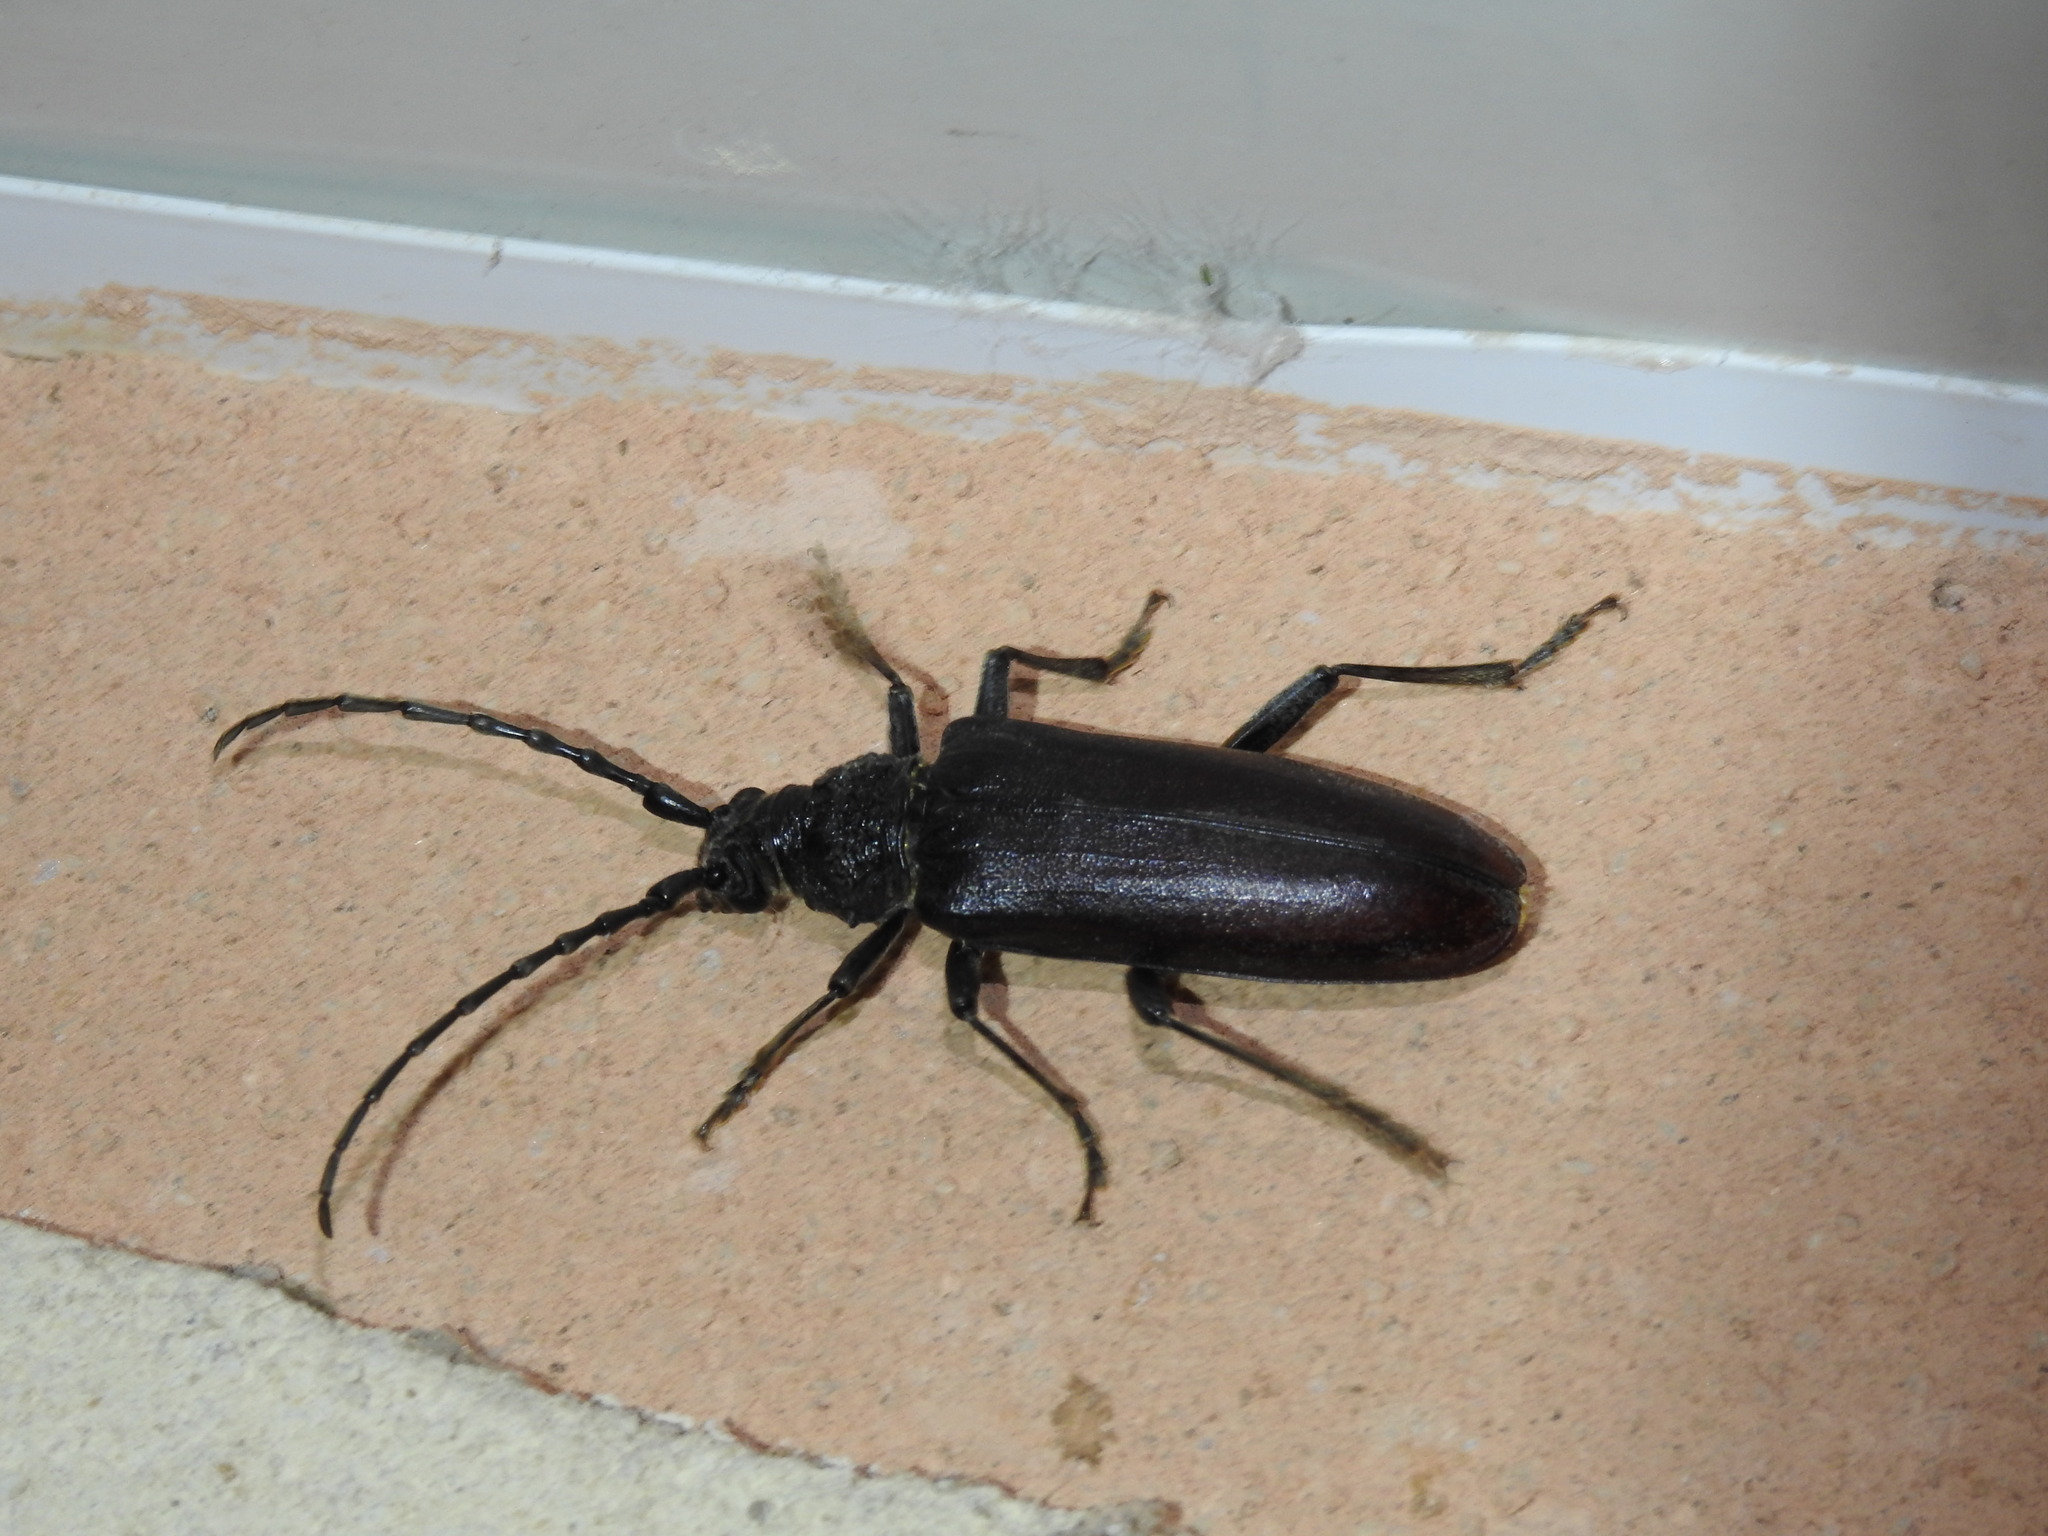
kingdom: Animalia
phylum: Arthropoda
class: Insecta
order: Coleoptera
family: Cerambycidae
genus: Cerambyx
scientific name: Cerambyx welensii
